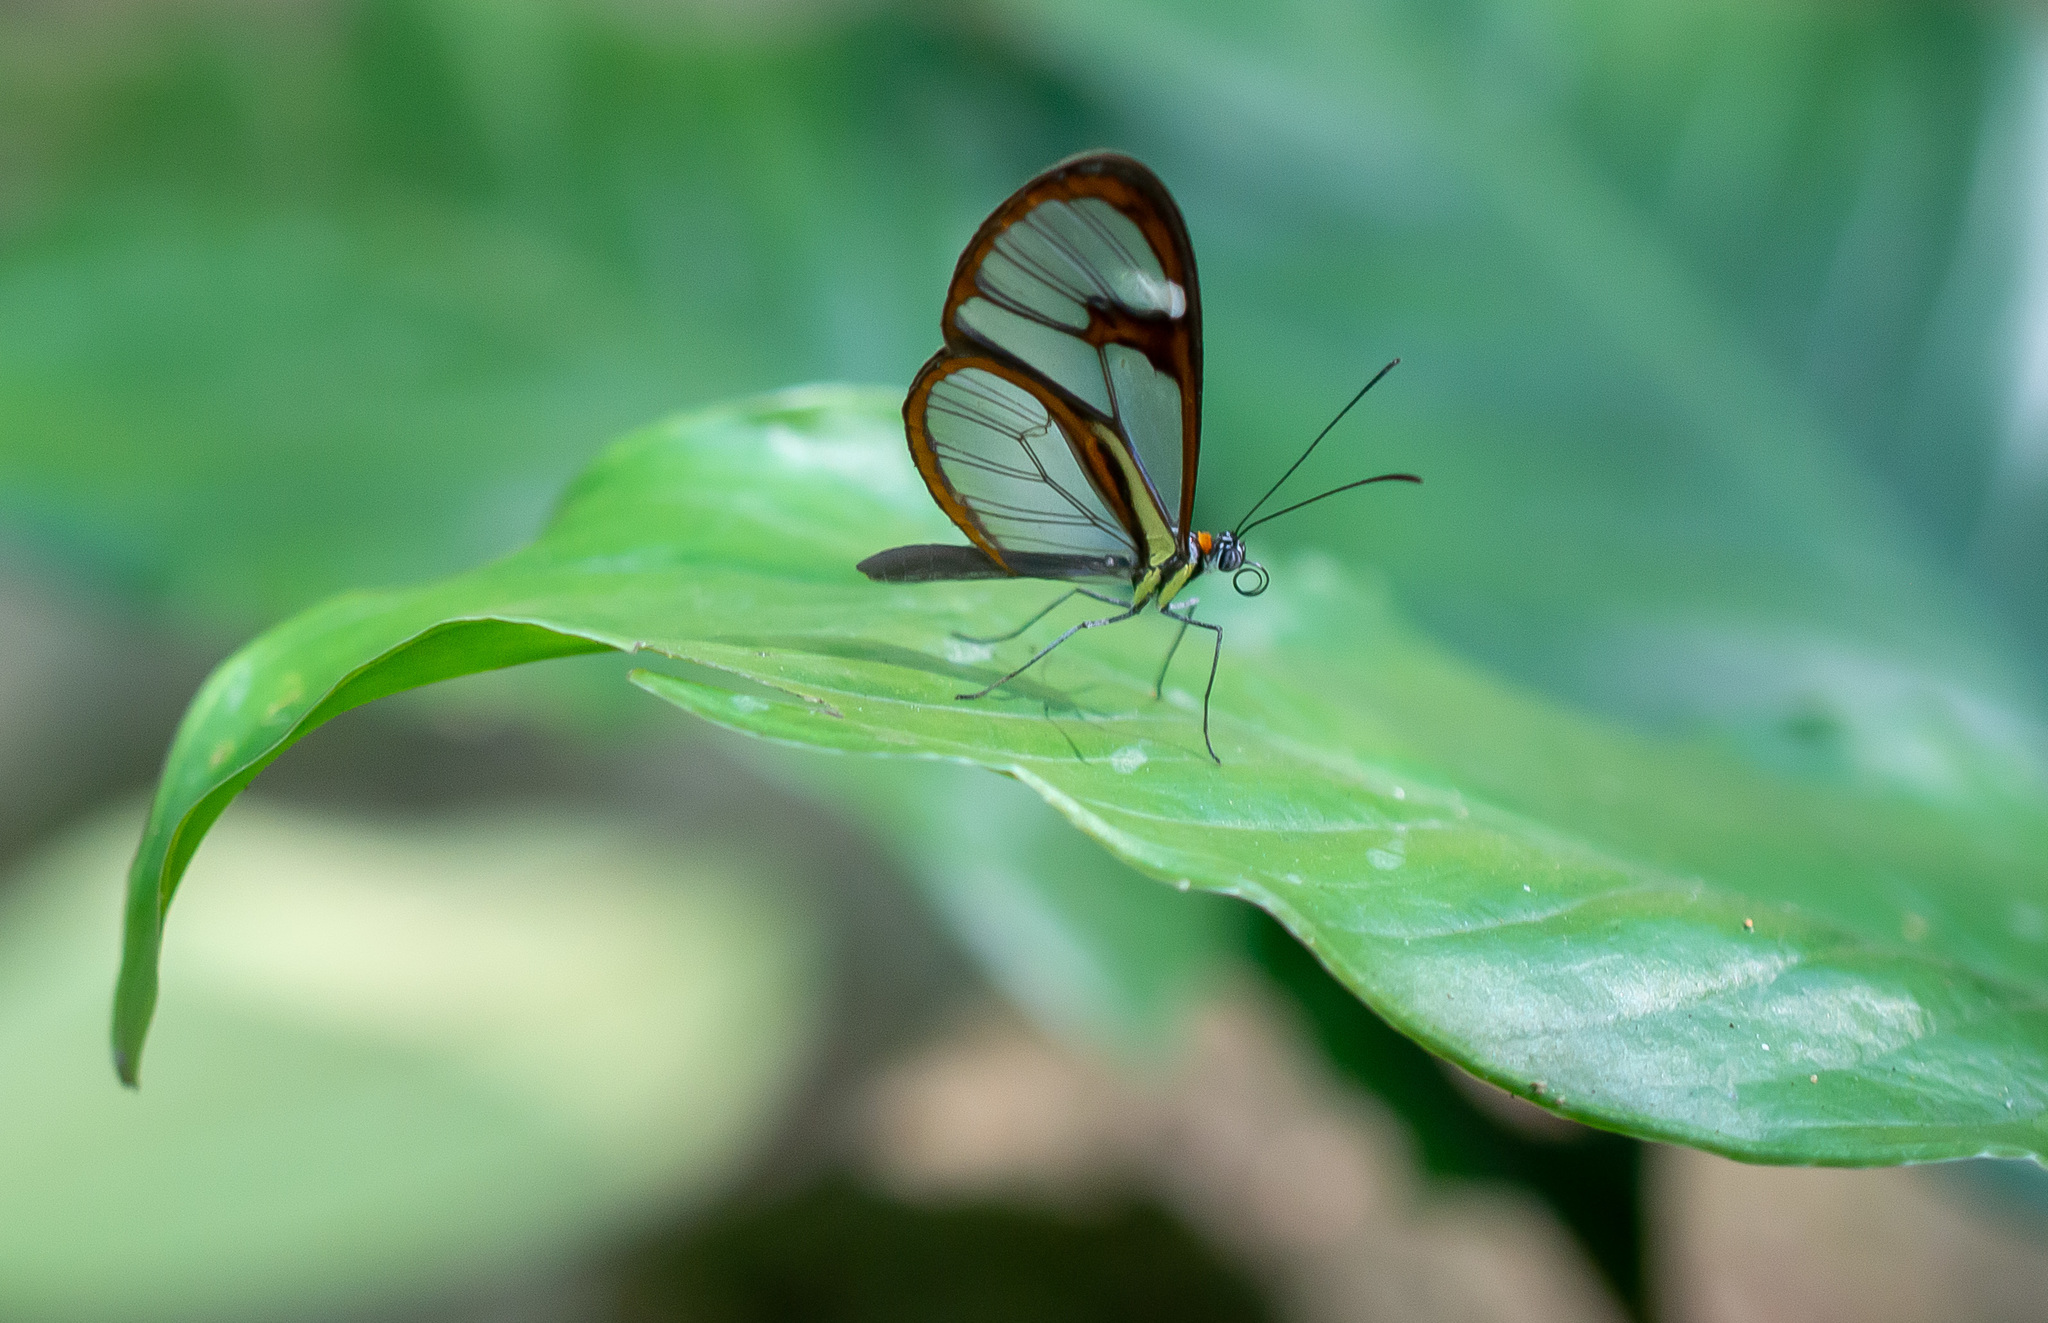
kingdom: Animalia
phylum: Arthropoda
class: Insecta
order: Lepidoptera
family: Nymphalidae
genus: Ithomia
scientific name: Ithomia agnosia
